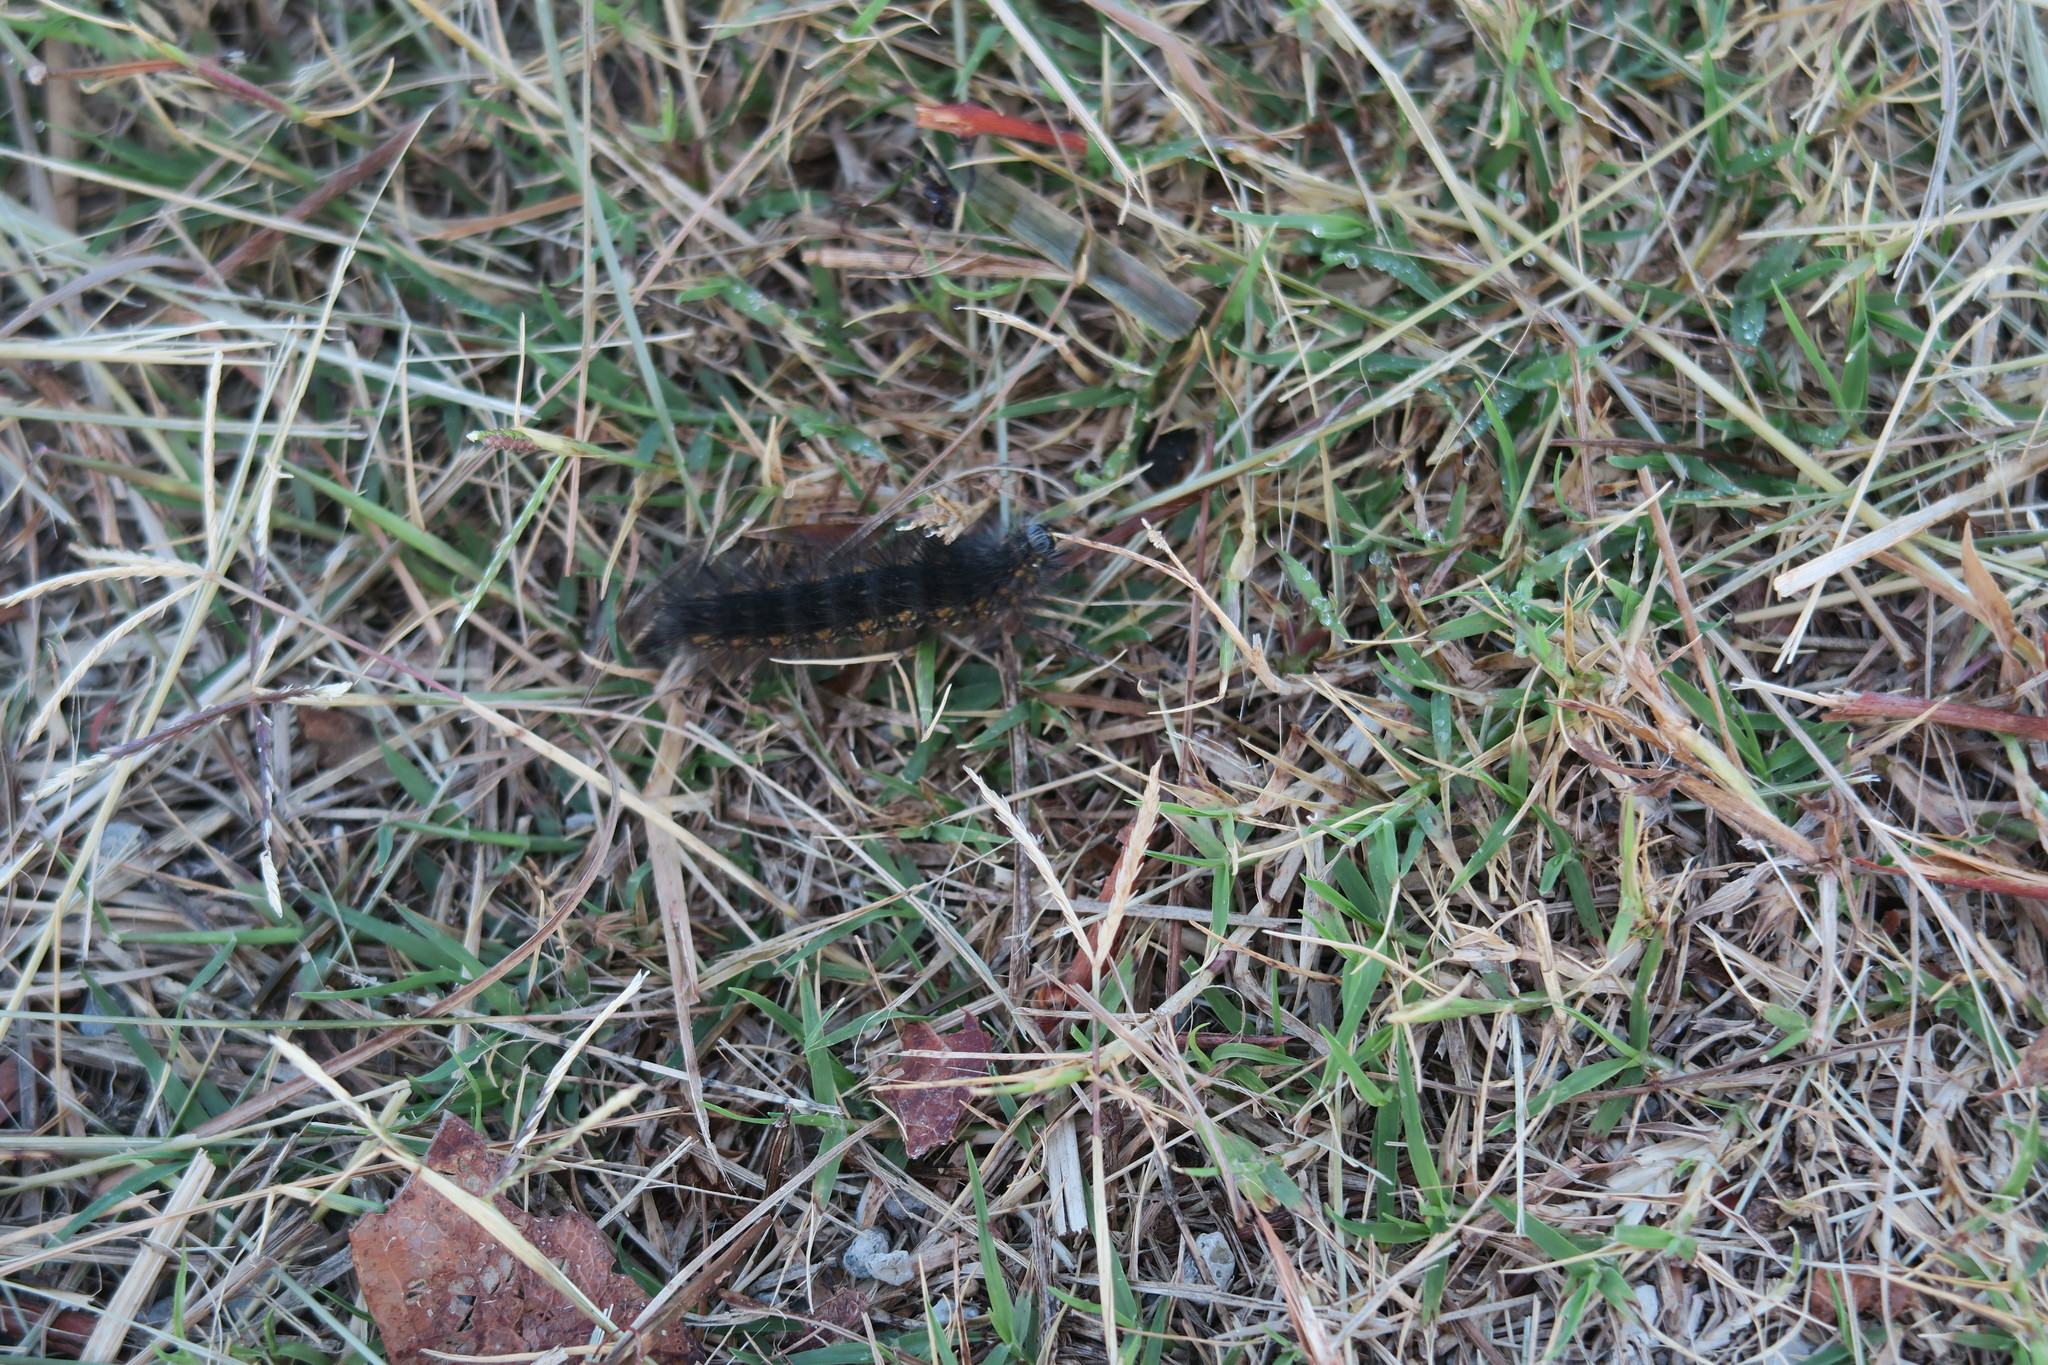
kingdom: Animalia
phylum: Arthropoda
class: Insecta
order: Lepidoptera
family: Erebidae
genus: Estigmene
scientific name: Estigmene acrea
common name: Salt marsh moth
